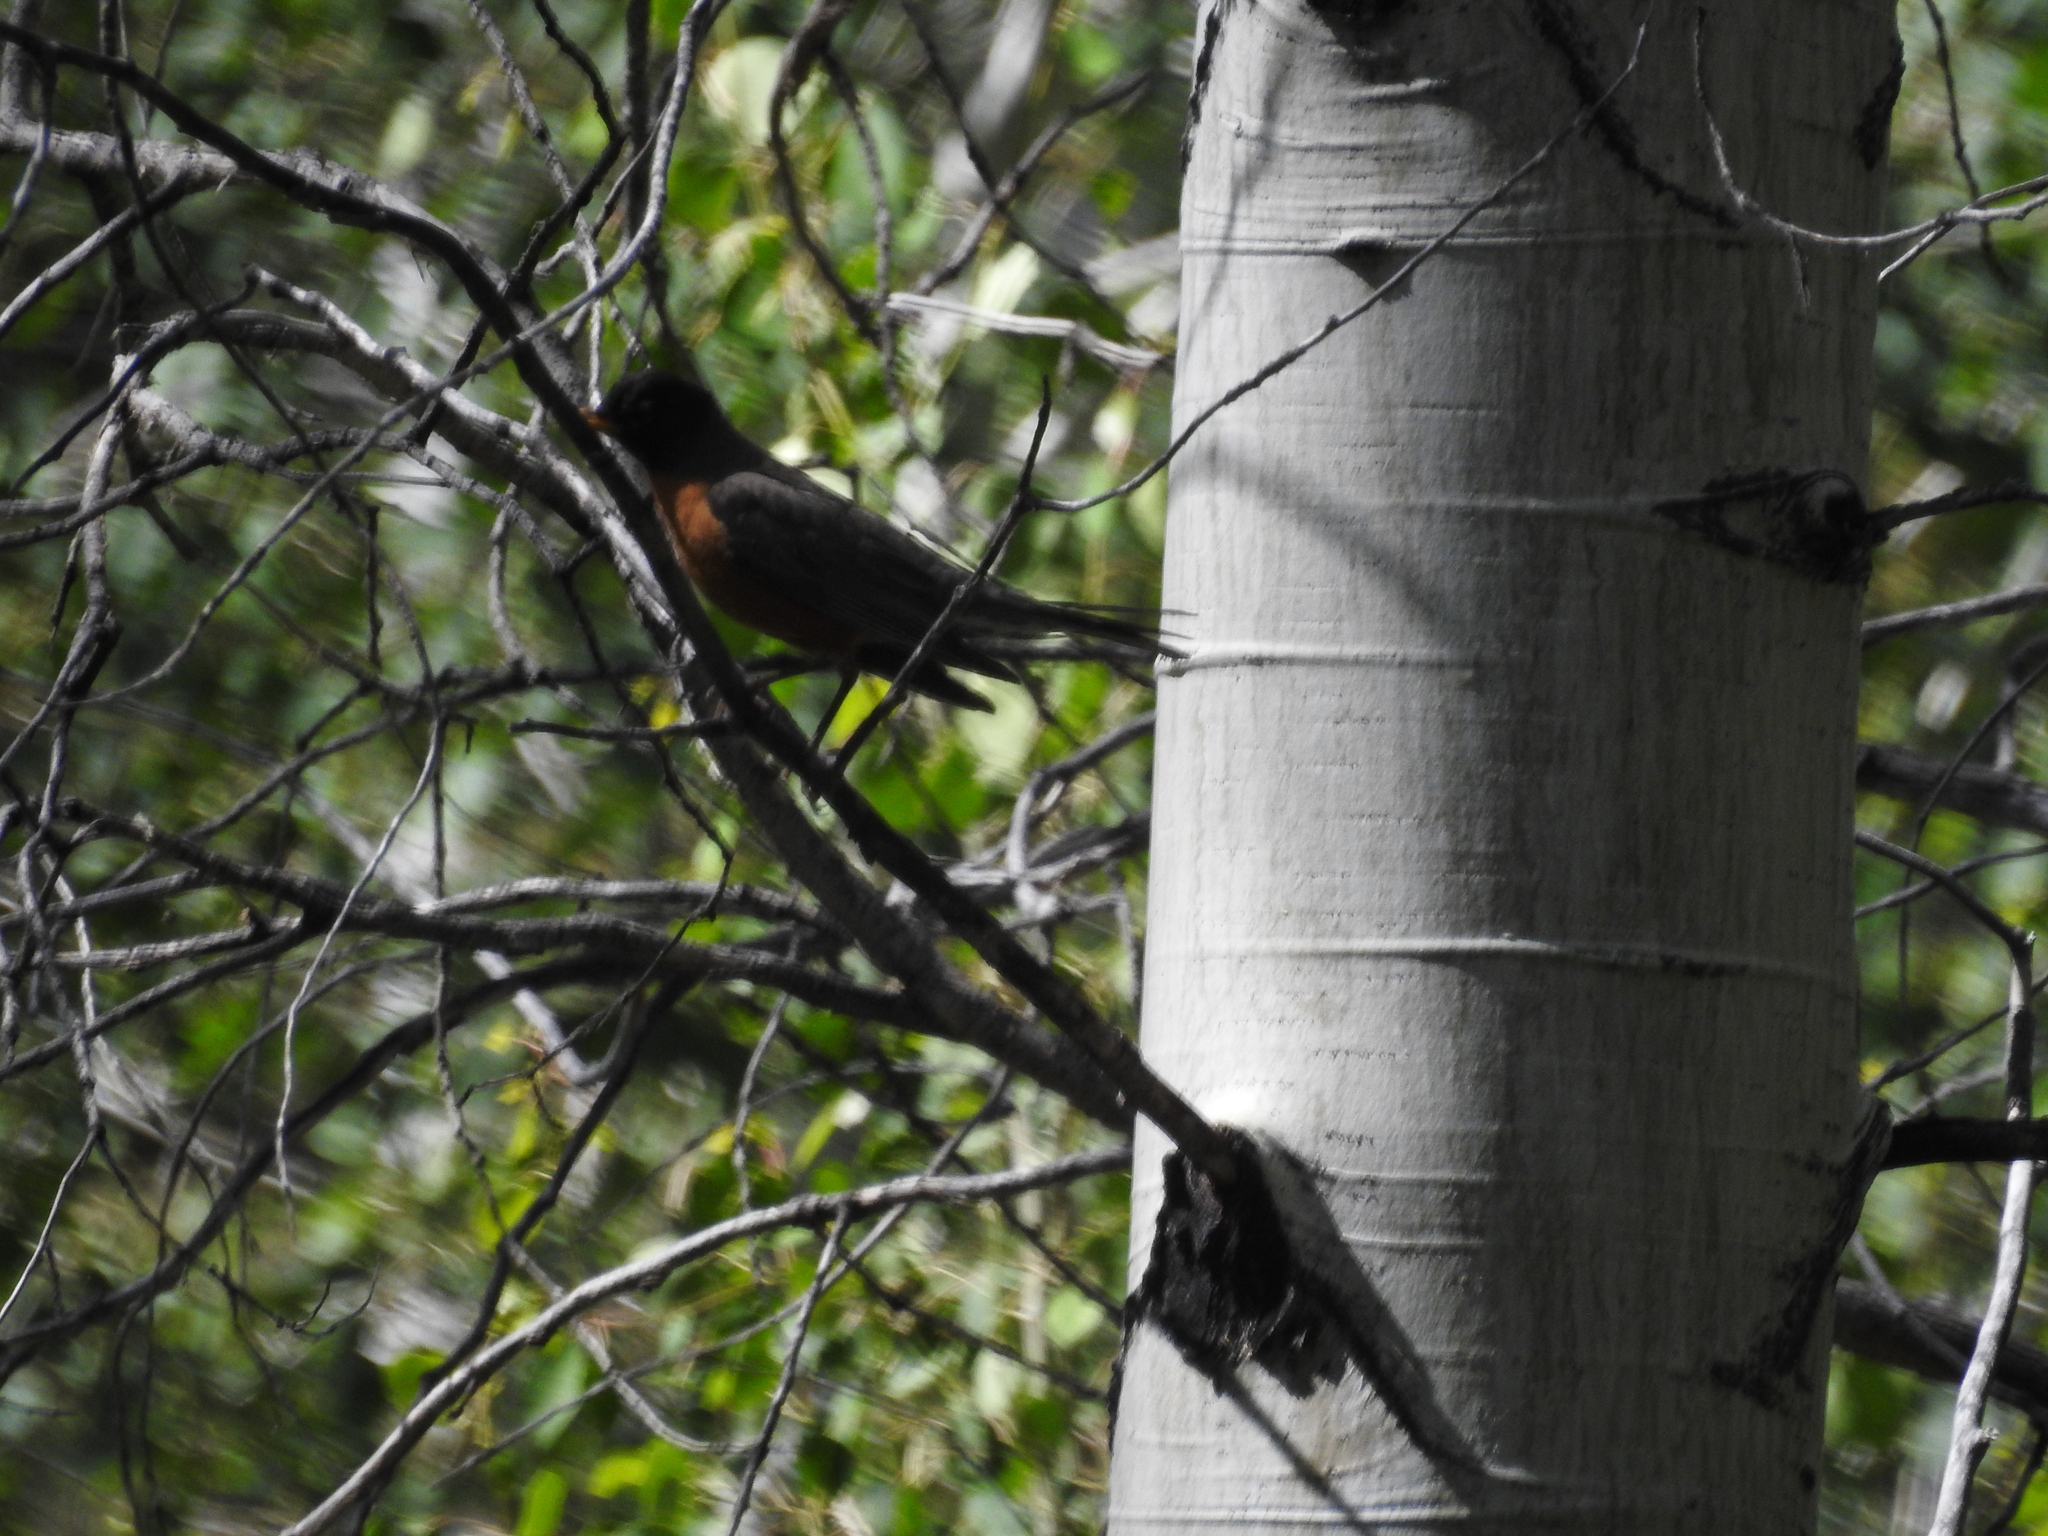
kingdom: Animalia
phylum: Chordata
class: Aves
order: Passeriformes
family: Turdidae
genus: Turdus
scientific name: Turdus migratorius
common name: American robin
